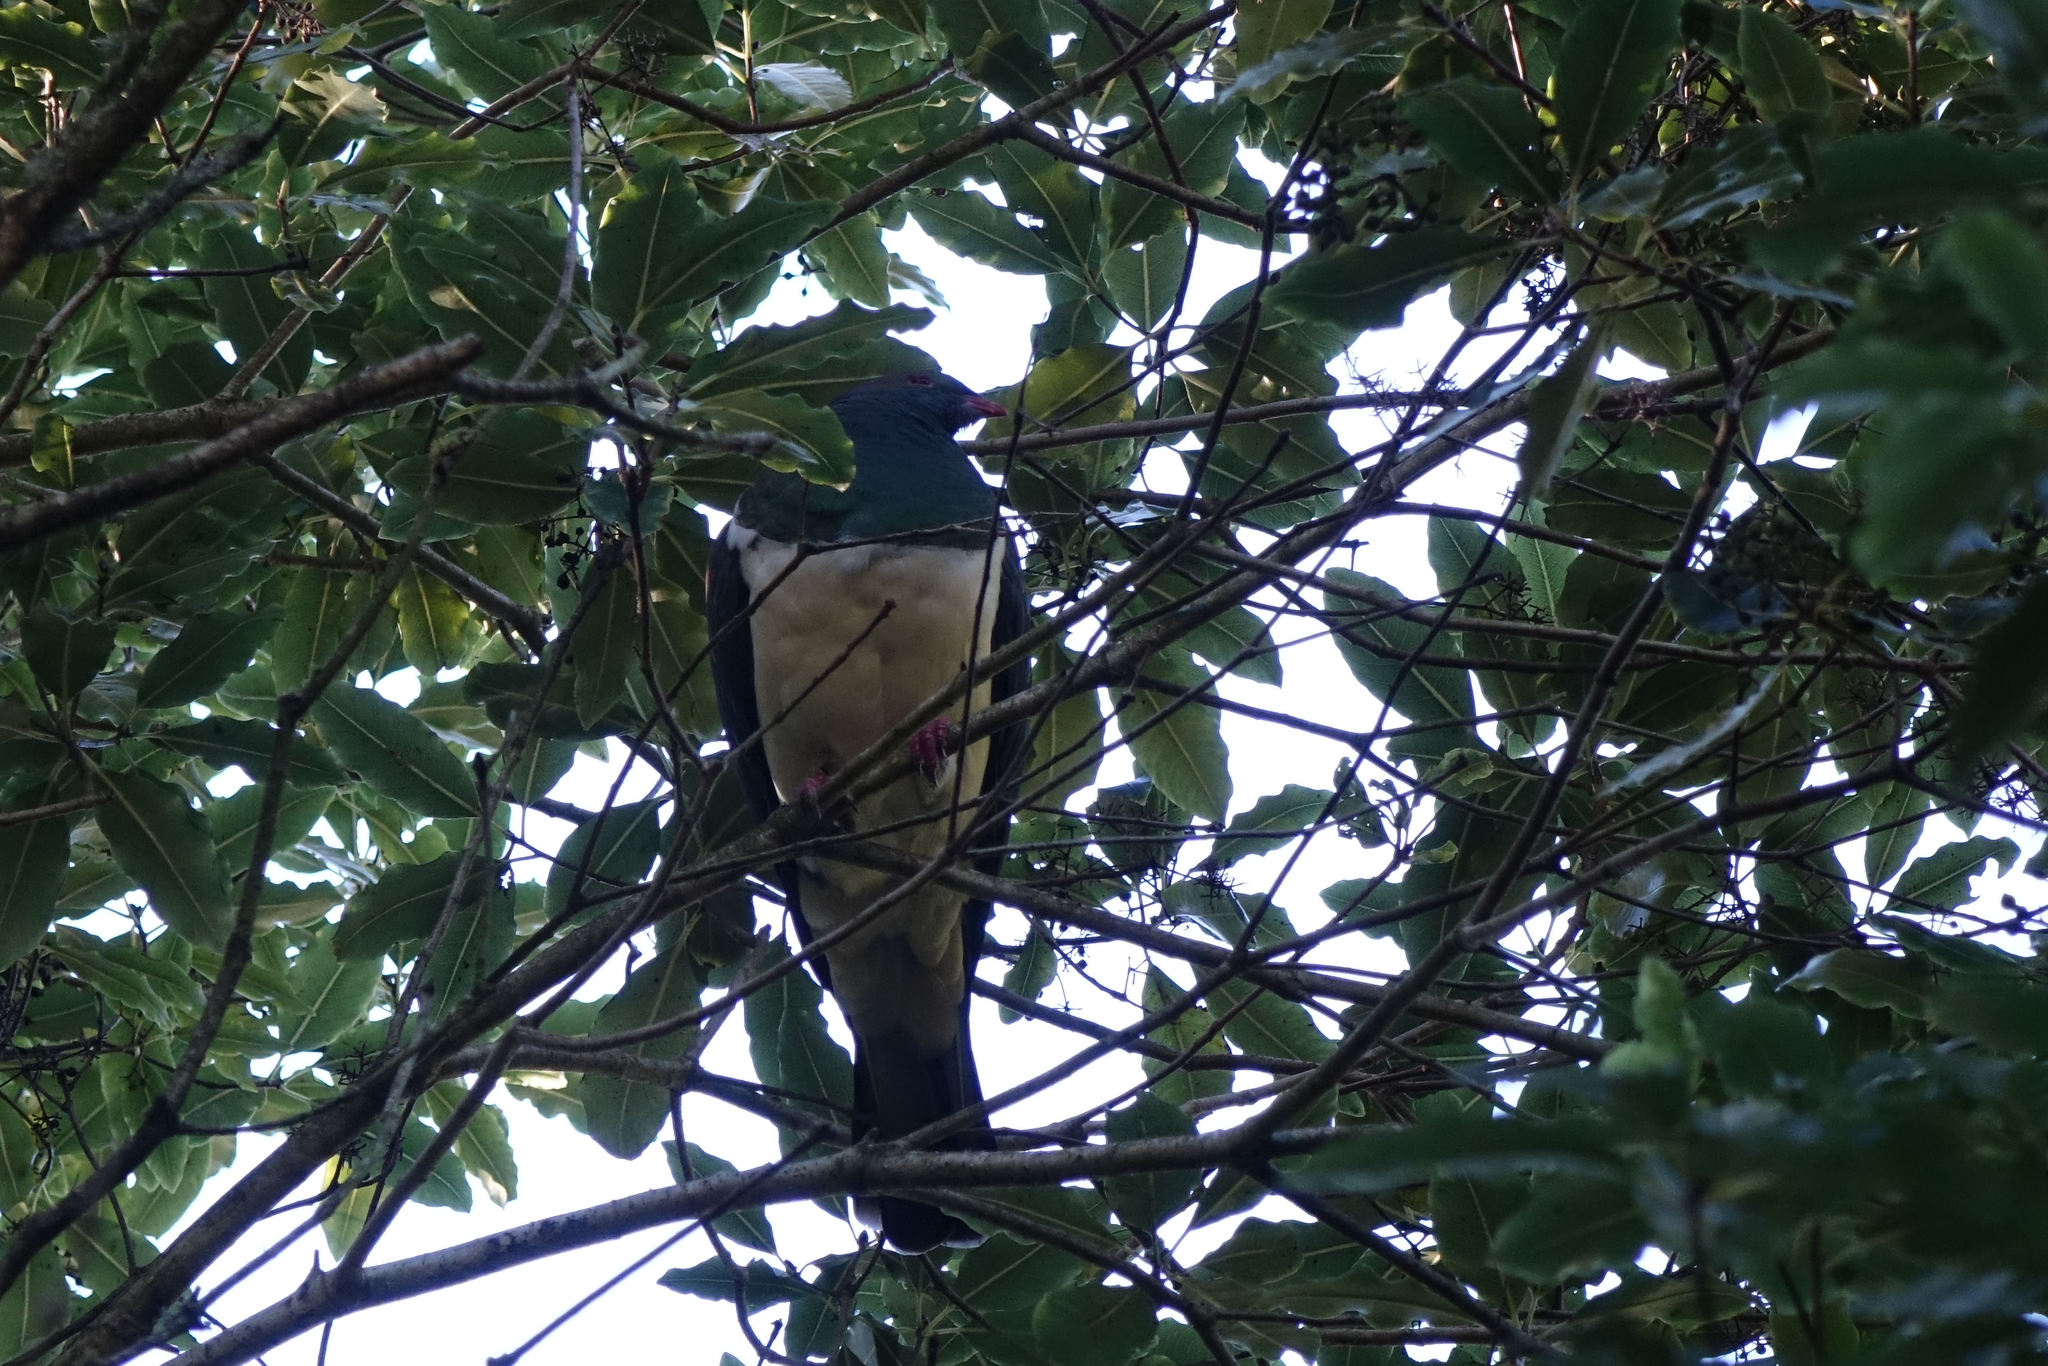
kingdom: Animalia
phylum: Chordata
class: Aves
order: Columbiformes
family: Columbidae
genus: Hemiphaga
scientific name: Hemiphaga novaeseelandiae
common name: New zealand pigeon
